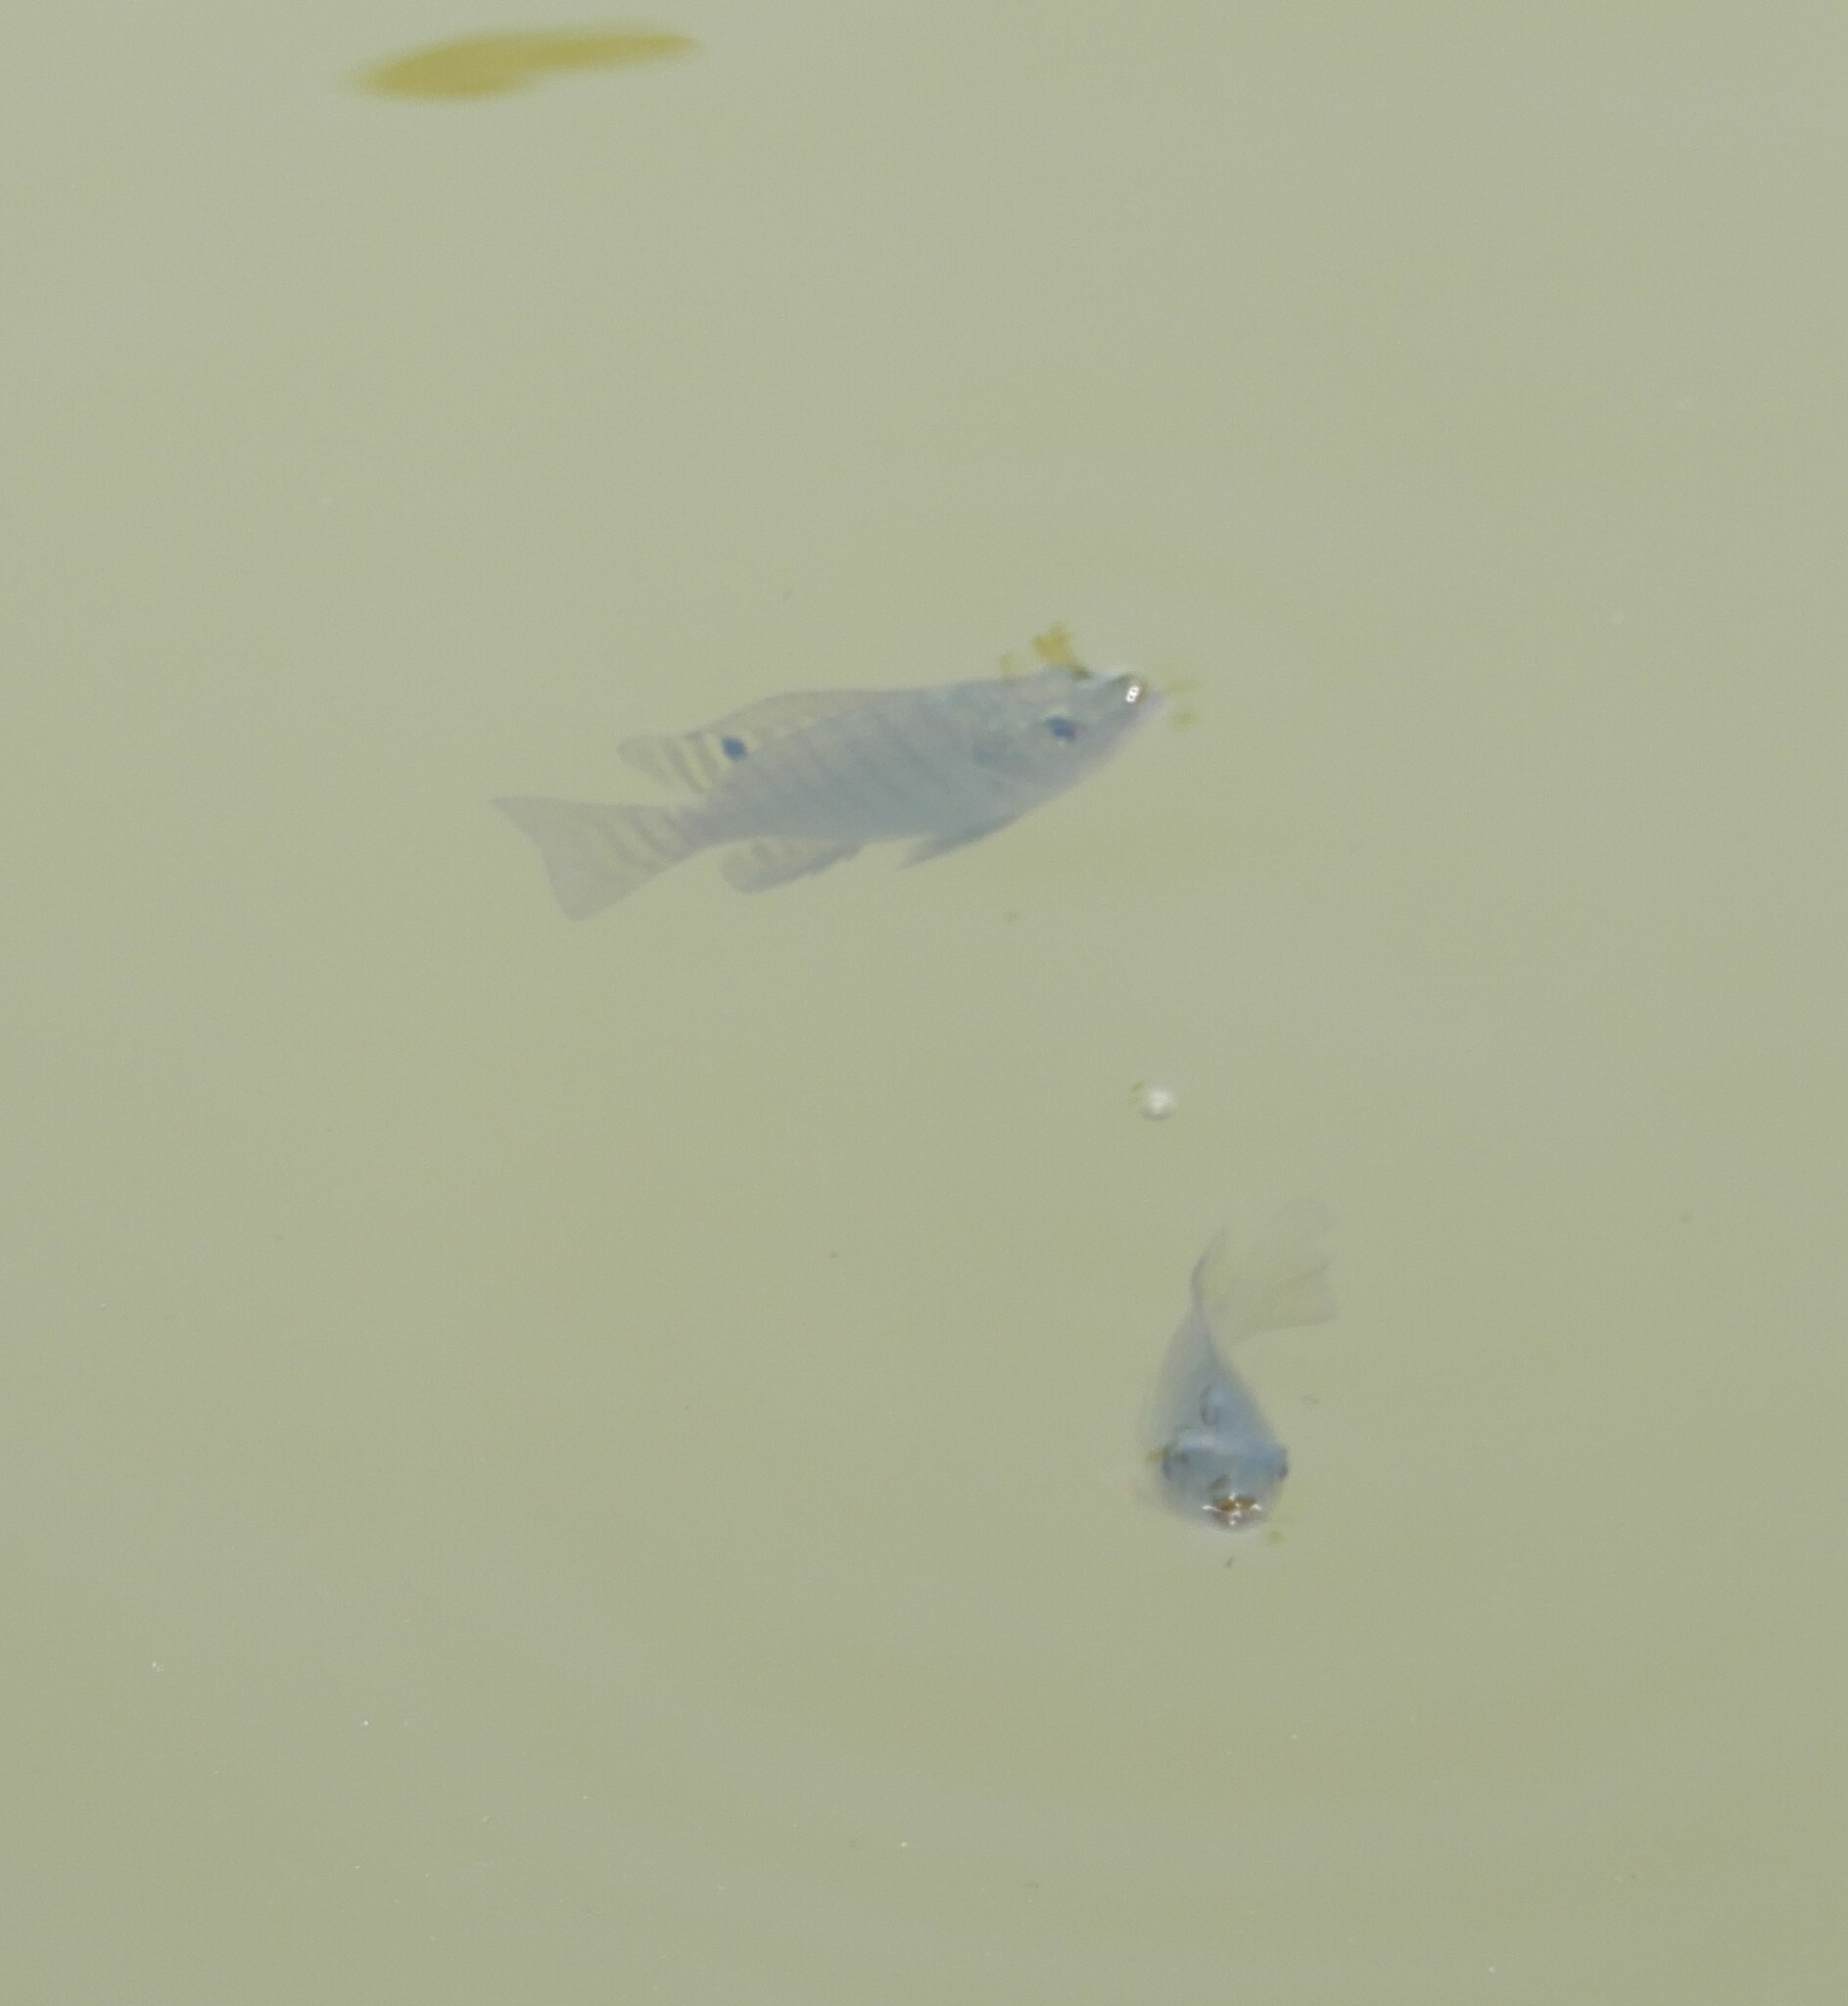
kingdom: Animalia
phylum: Chordata
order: Perciformes
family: Cichlidae
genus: Oreochromis
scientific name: Oreochromis niloticus
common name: Nile tilapia
